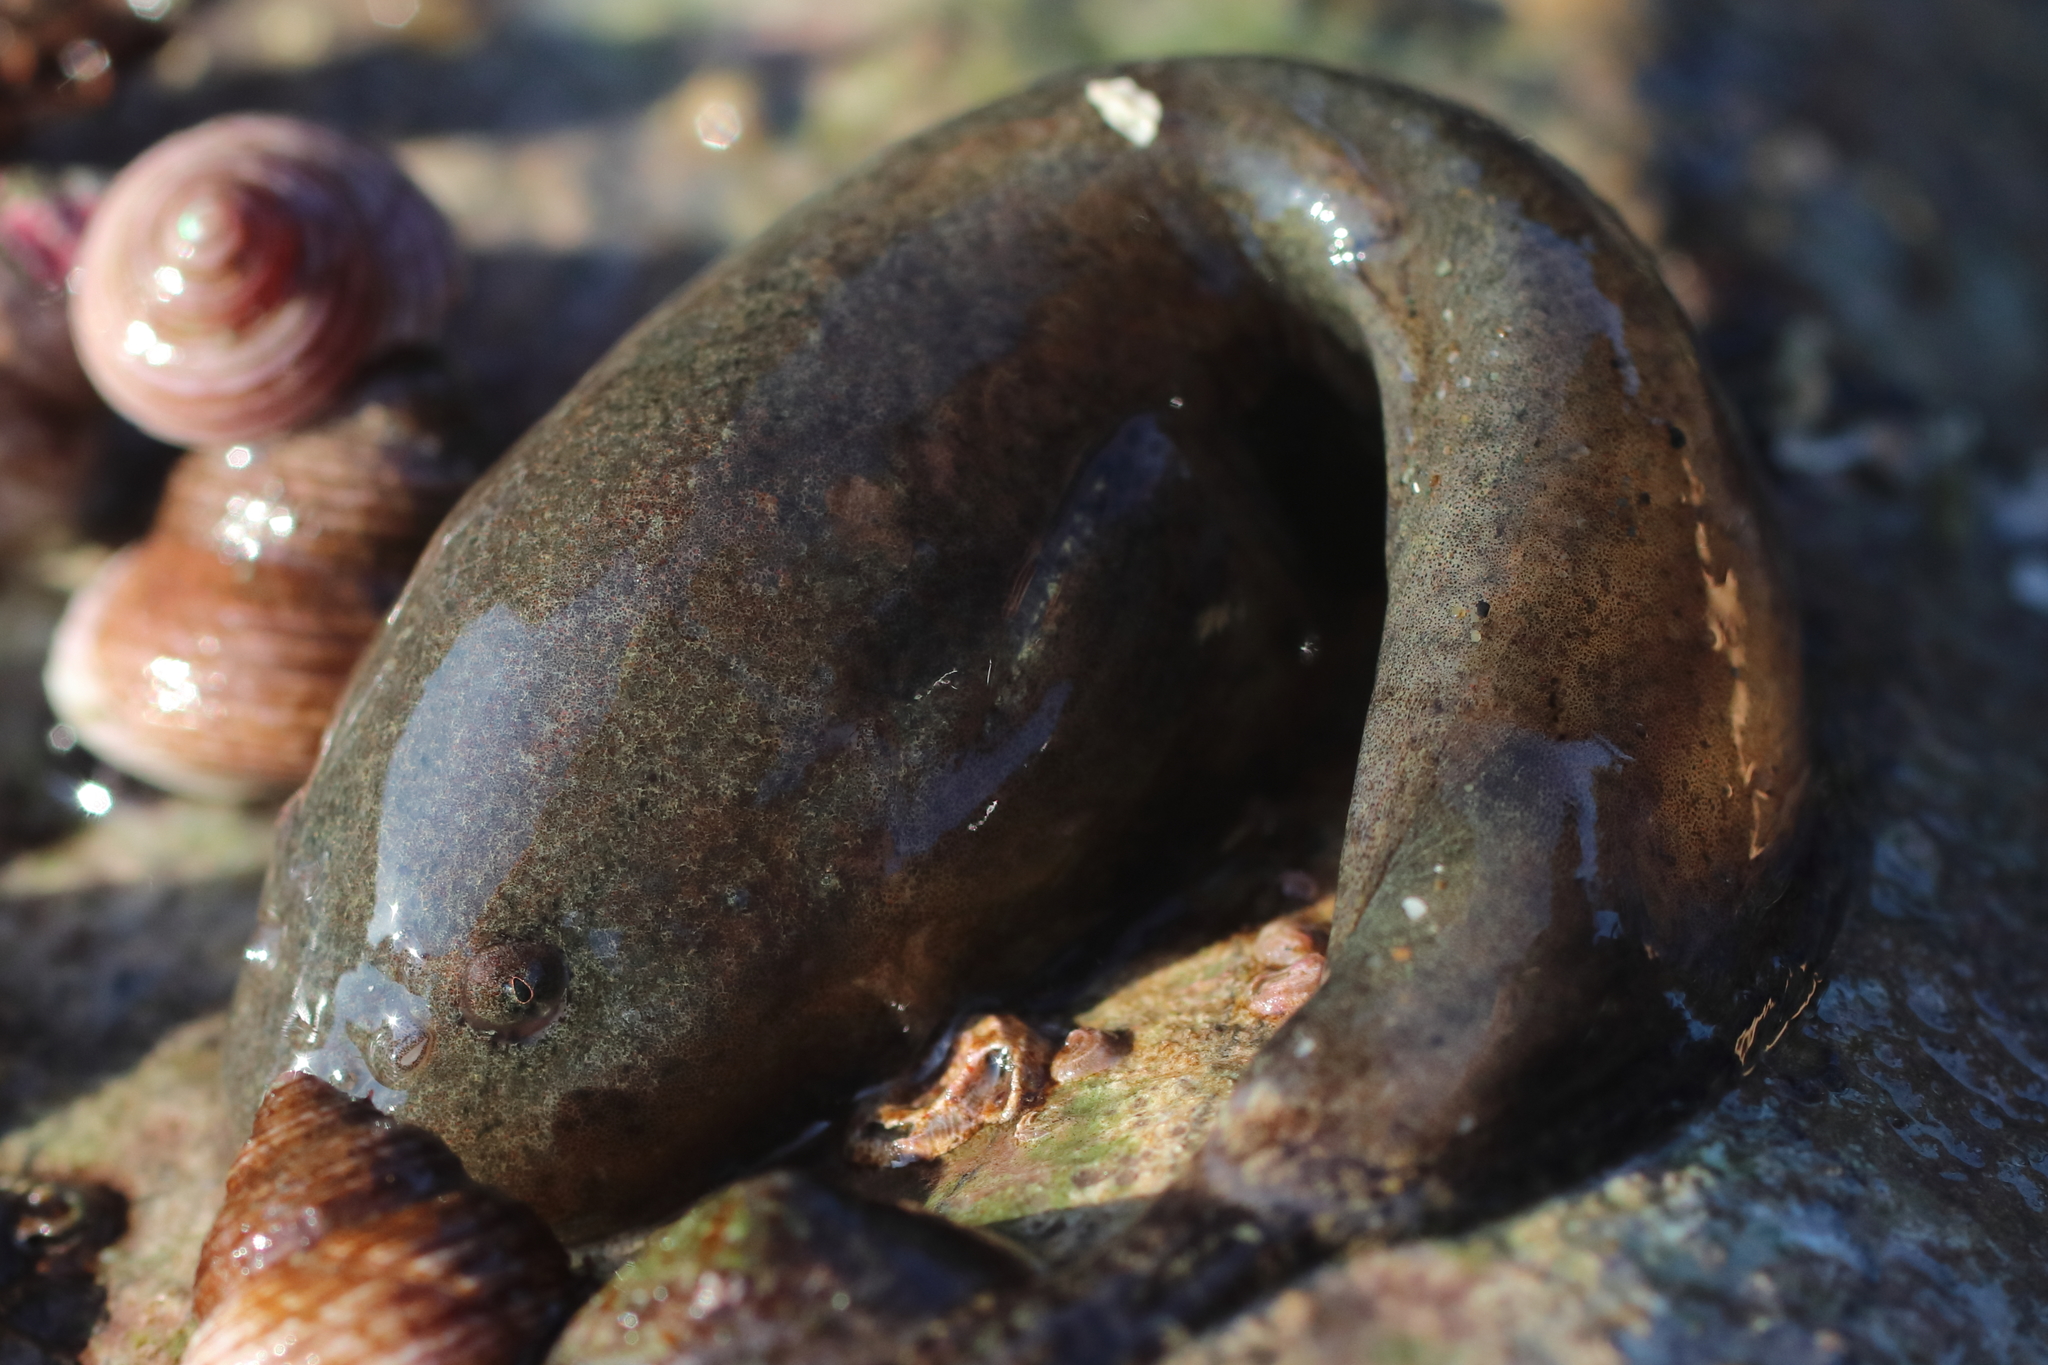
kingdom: Animalia
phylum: Chordata
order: Scorpaeniformes
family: Liparidae
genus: Liparis
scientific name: Liparis florae
